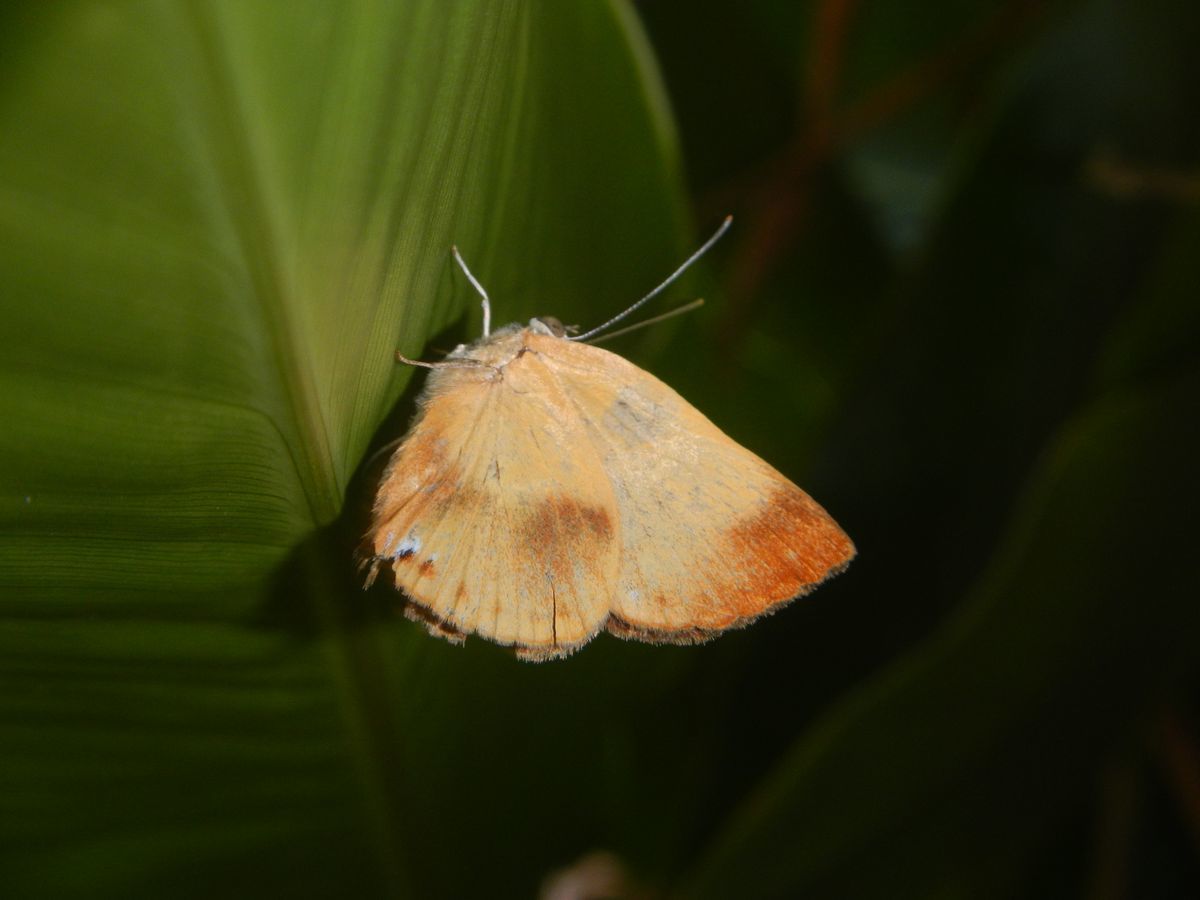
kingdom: Animalia
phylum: Arthropoda
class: Insecta
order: Lepidoptera
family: Nymphalidae
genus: Ethope
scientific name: Ethope
